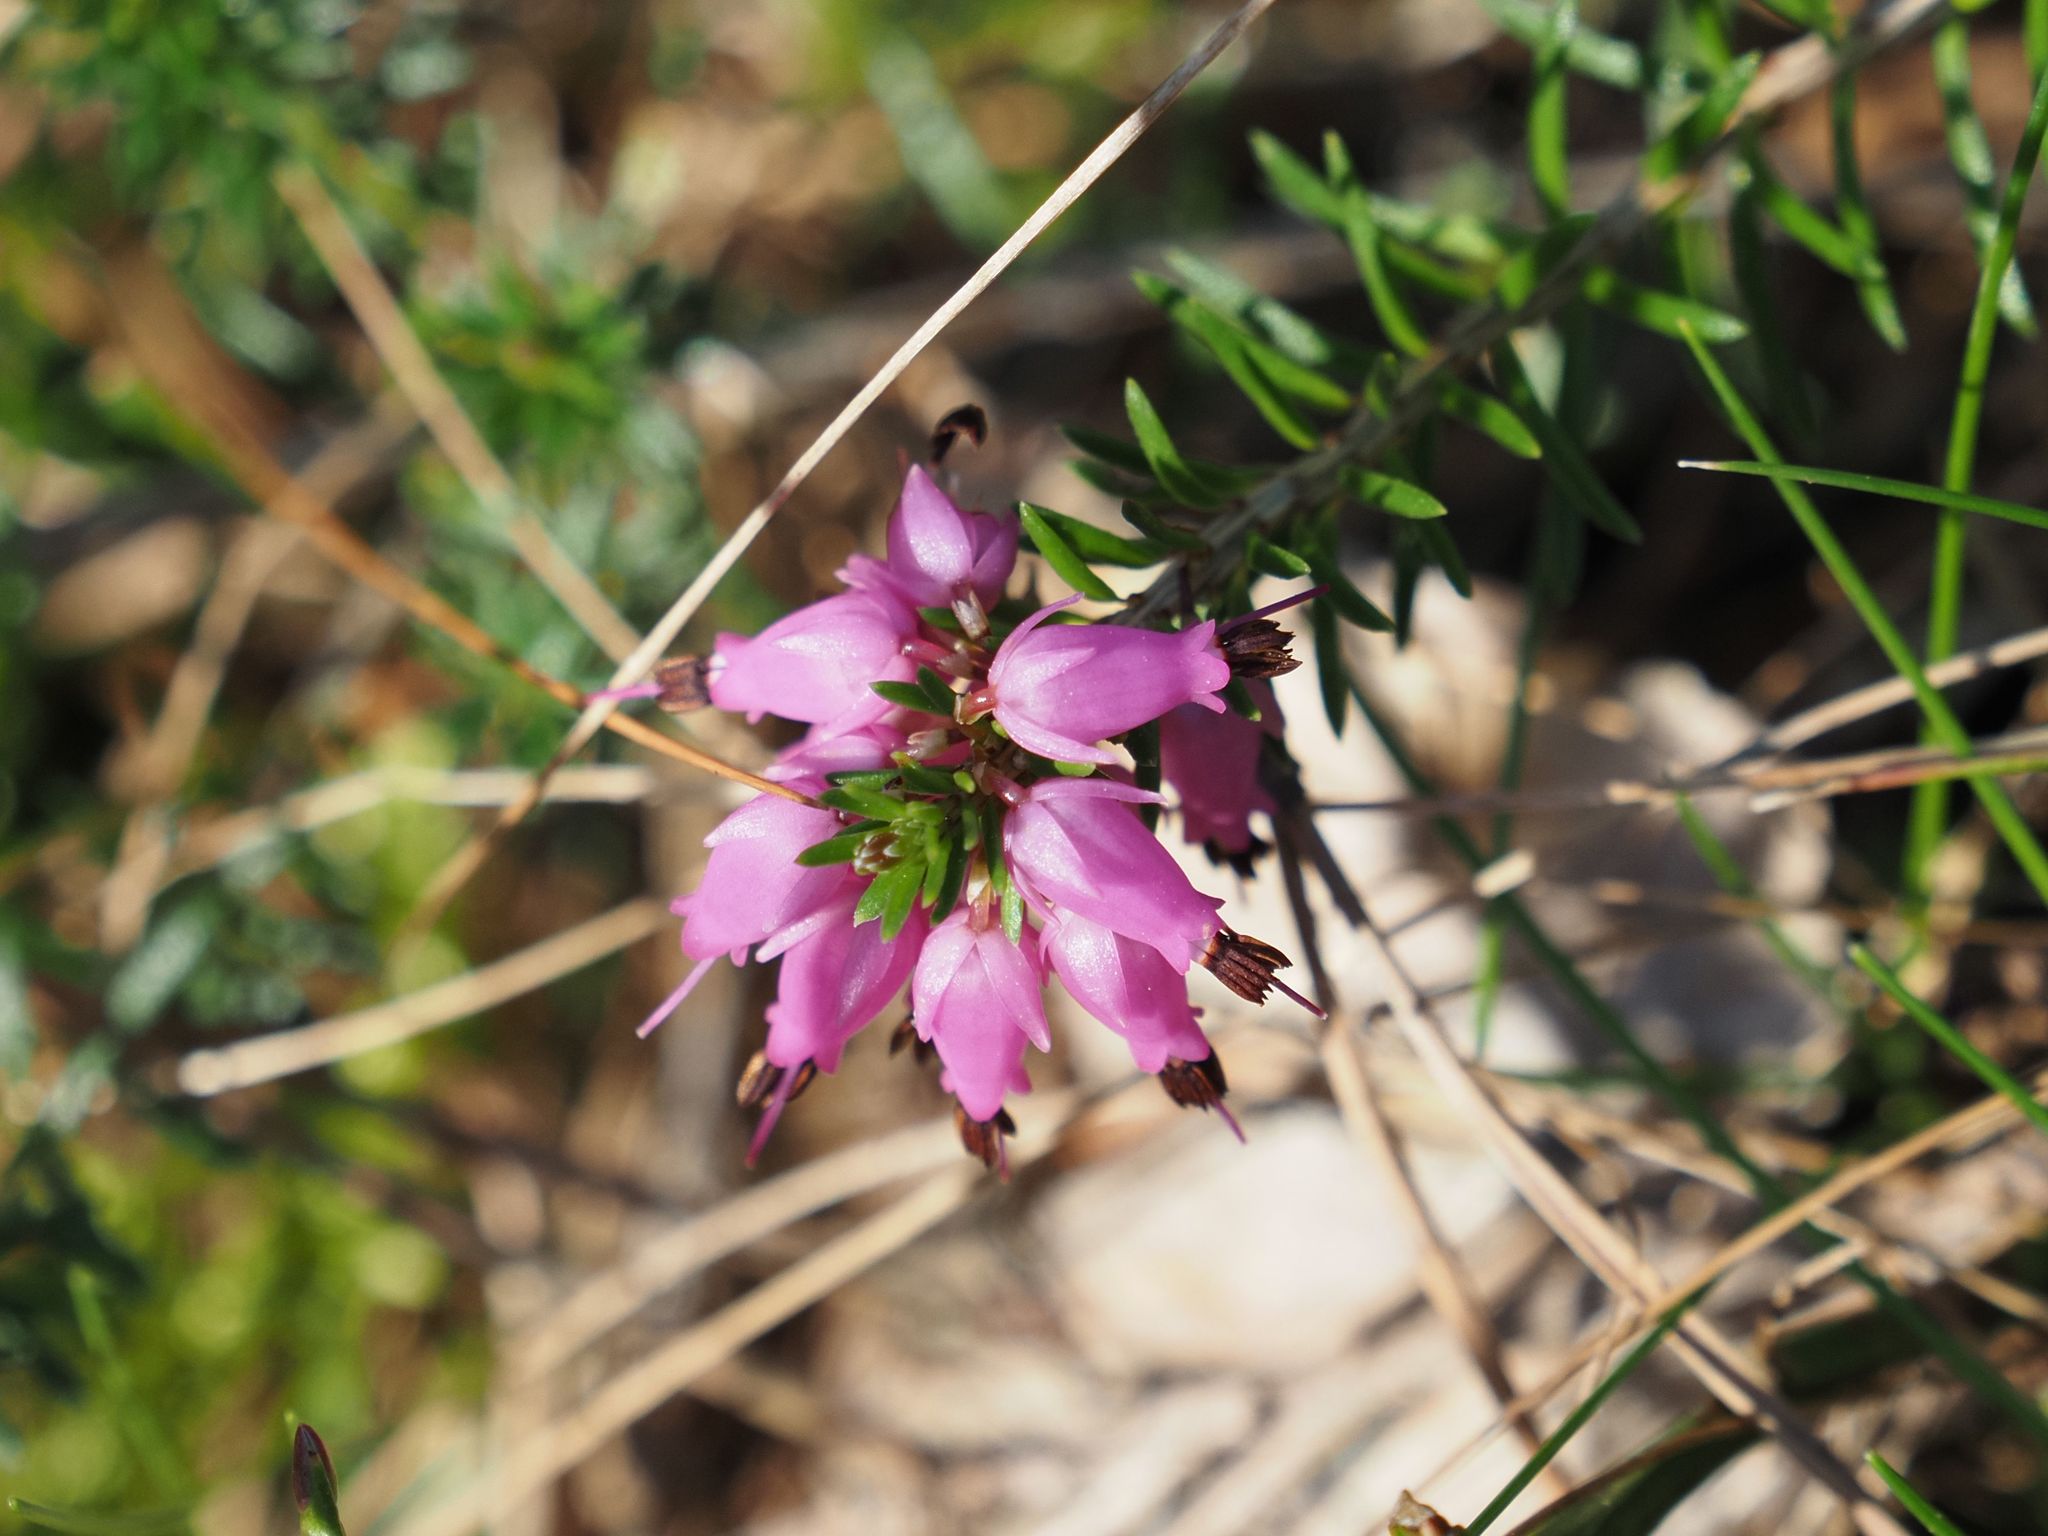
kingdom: Plantae
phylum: Tracheophyta
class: Magnoliopsida
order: Ericales
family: Ericaceae
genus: Erica
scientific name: Erica carnea
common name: Winter heath
